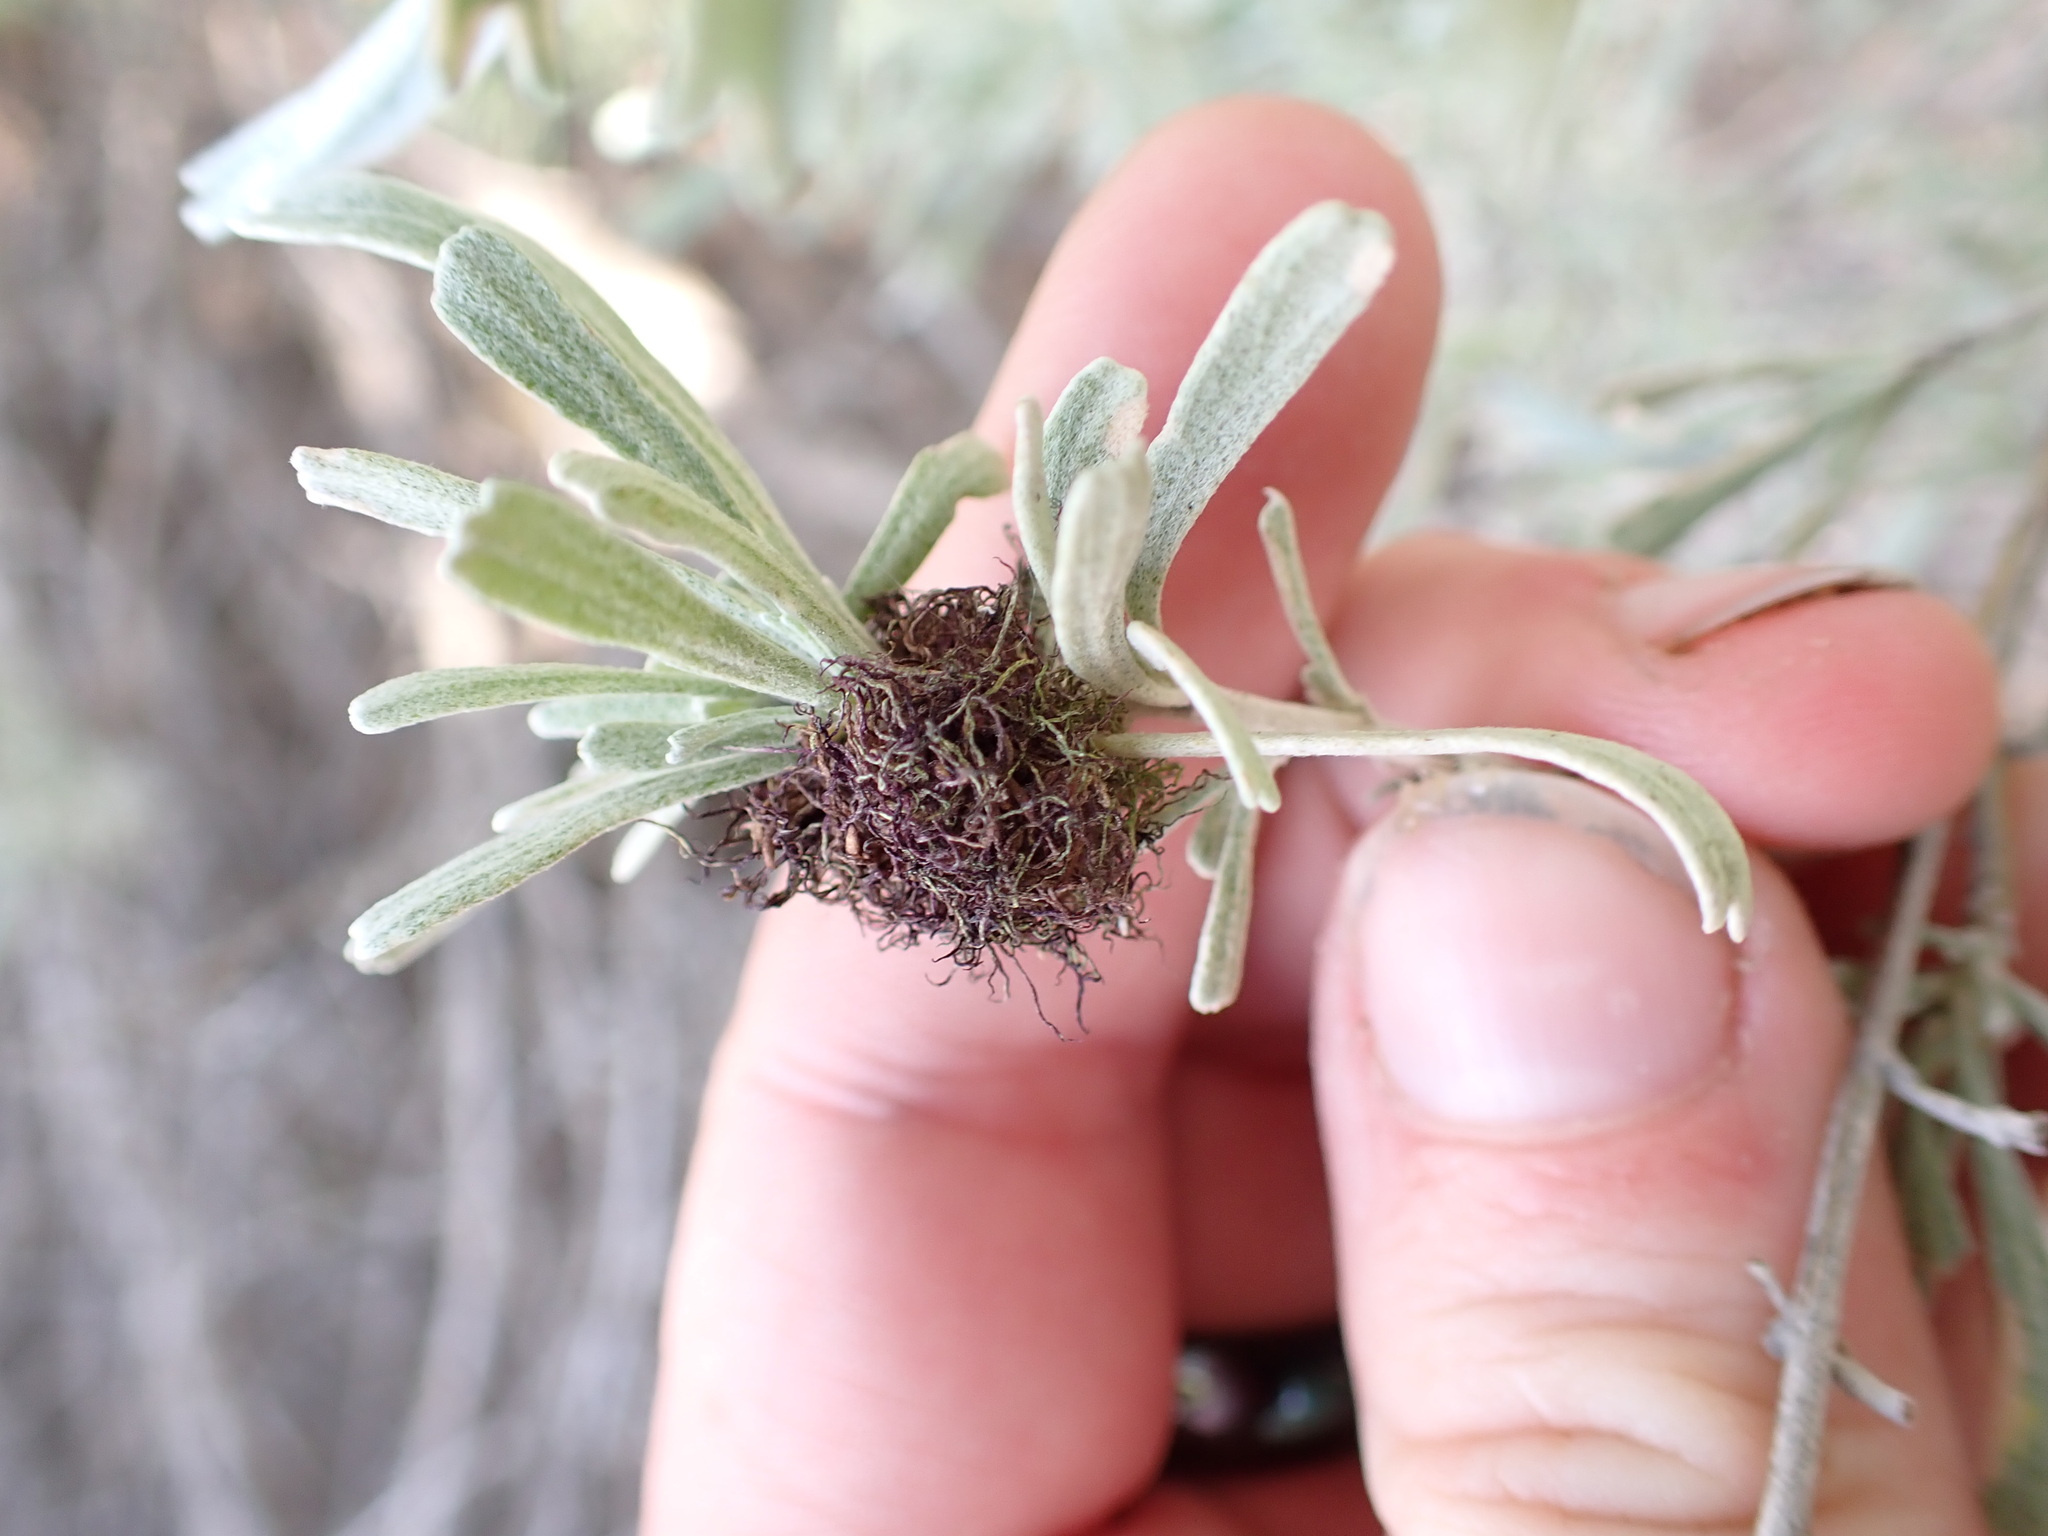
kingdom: Animalia
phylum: Arthropoda
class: Insecta
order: Diptera
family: Cecidomyiidae
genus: Rhopalomyia
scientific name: Rhopalomyia medusa
